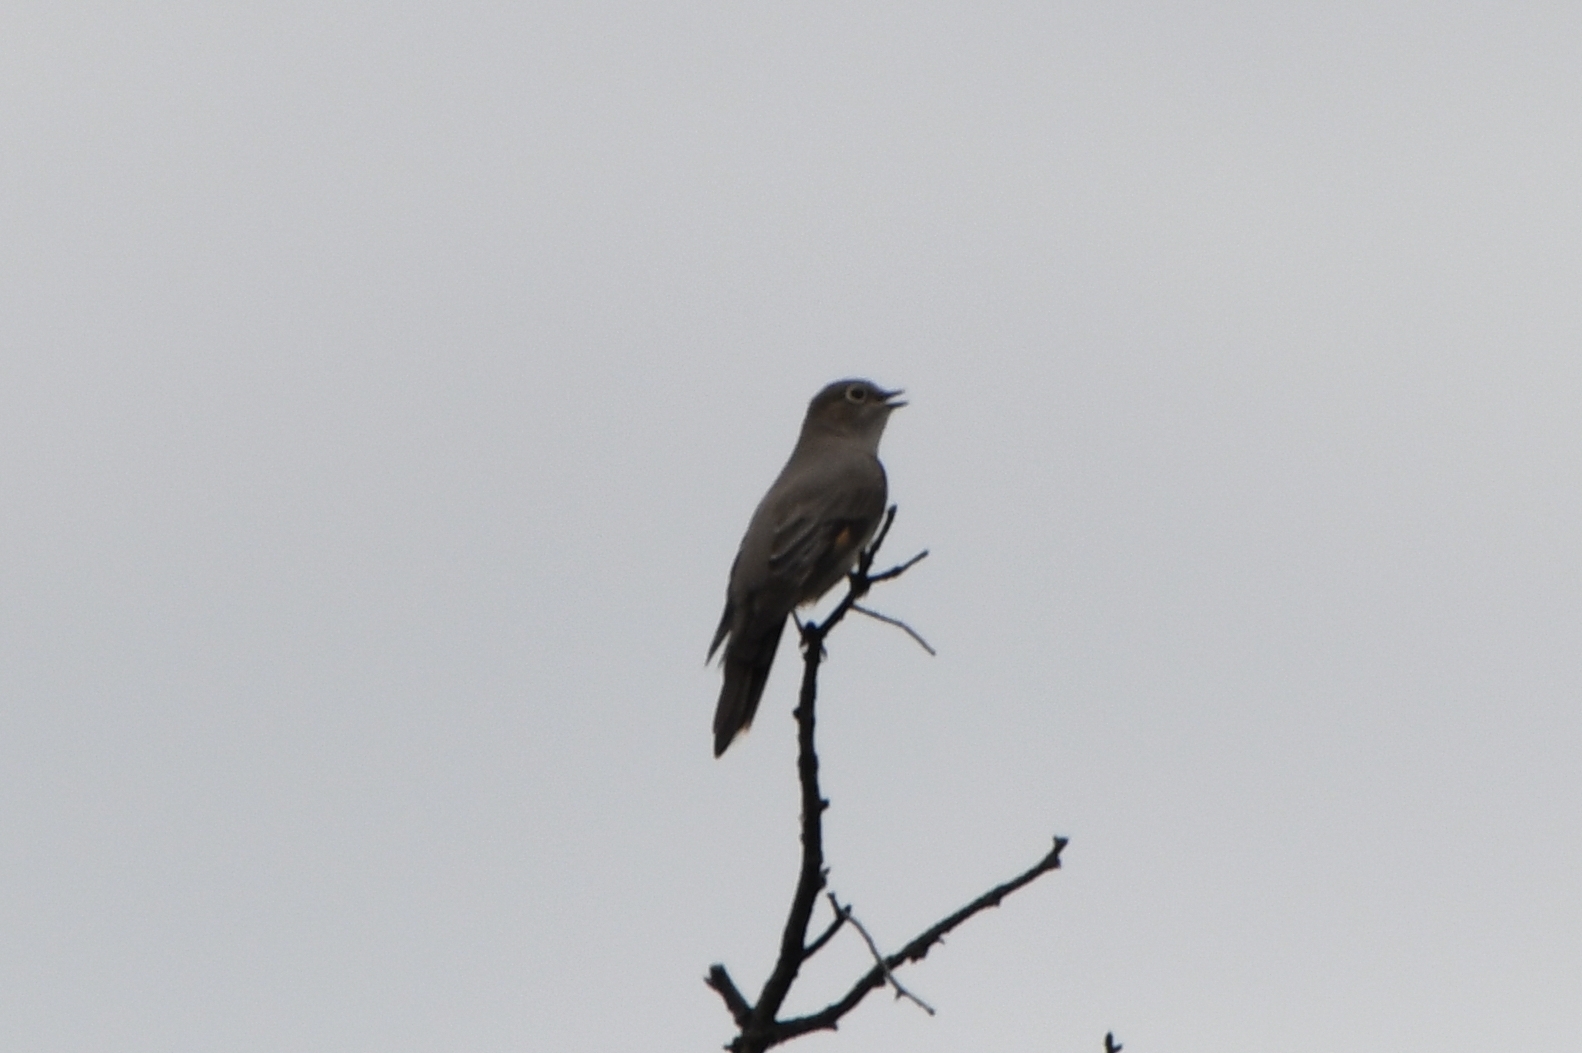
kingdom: Animalia
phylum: Chordata
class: Aves
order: Passeriformes
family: Turdidae
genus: Myadestes
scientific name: Myadestes townsendi
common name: Townsend's solitaire
